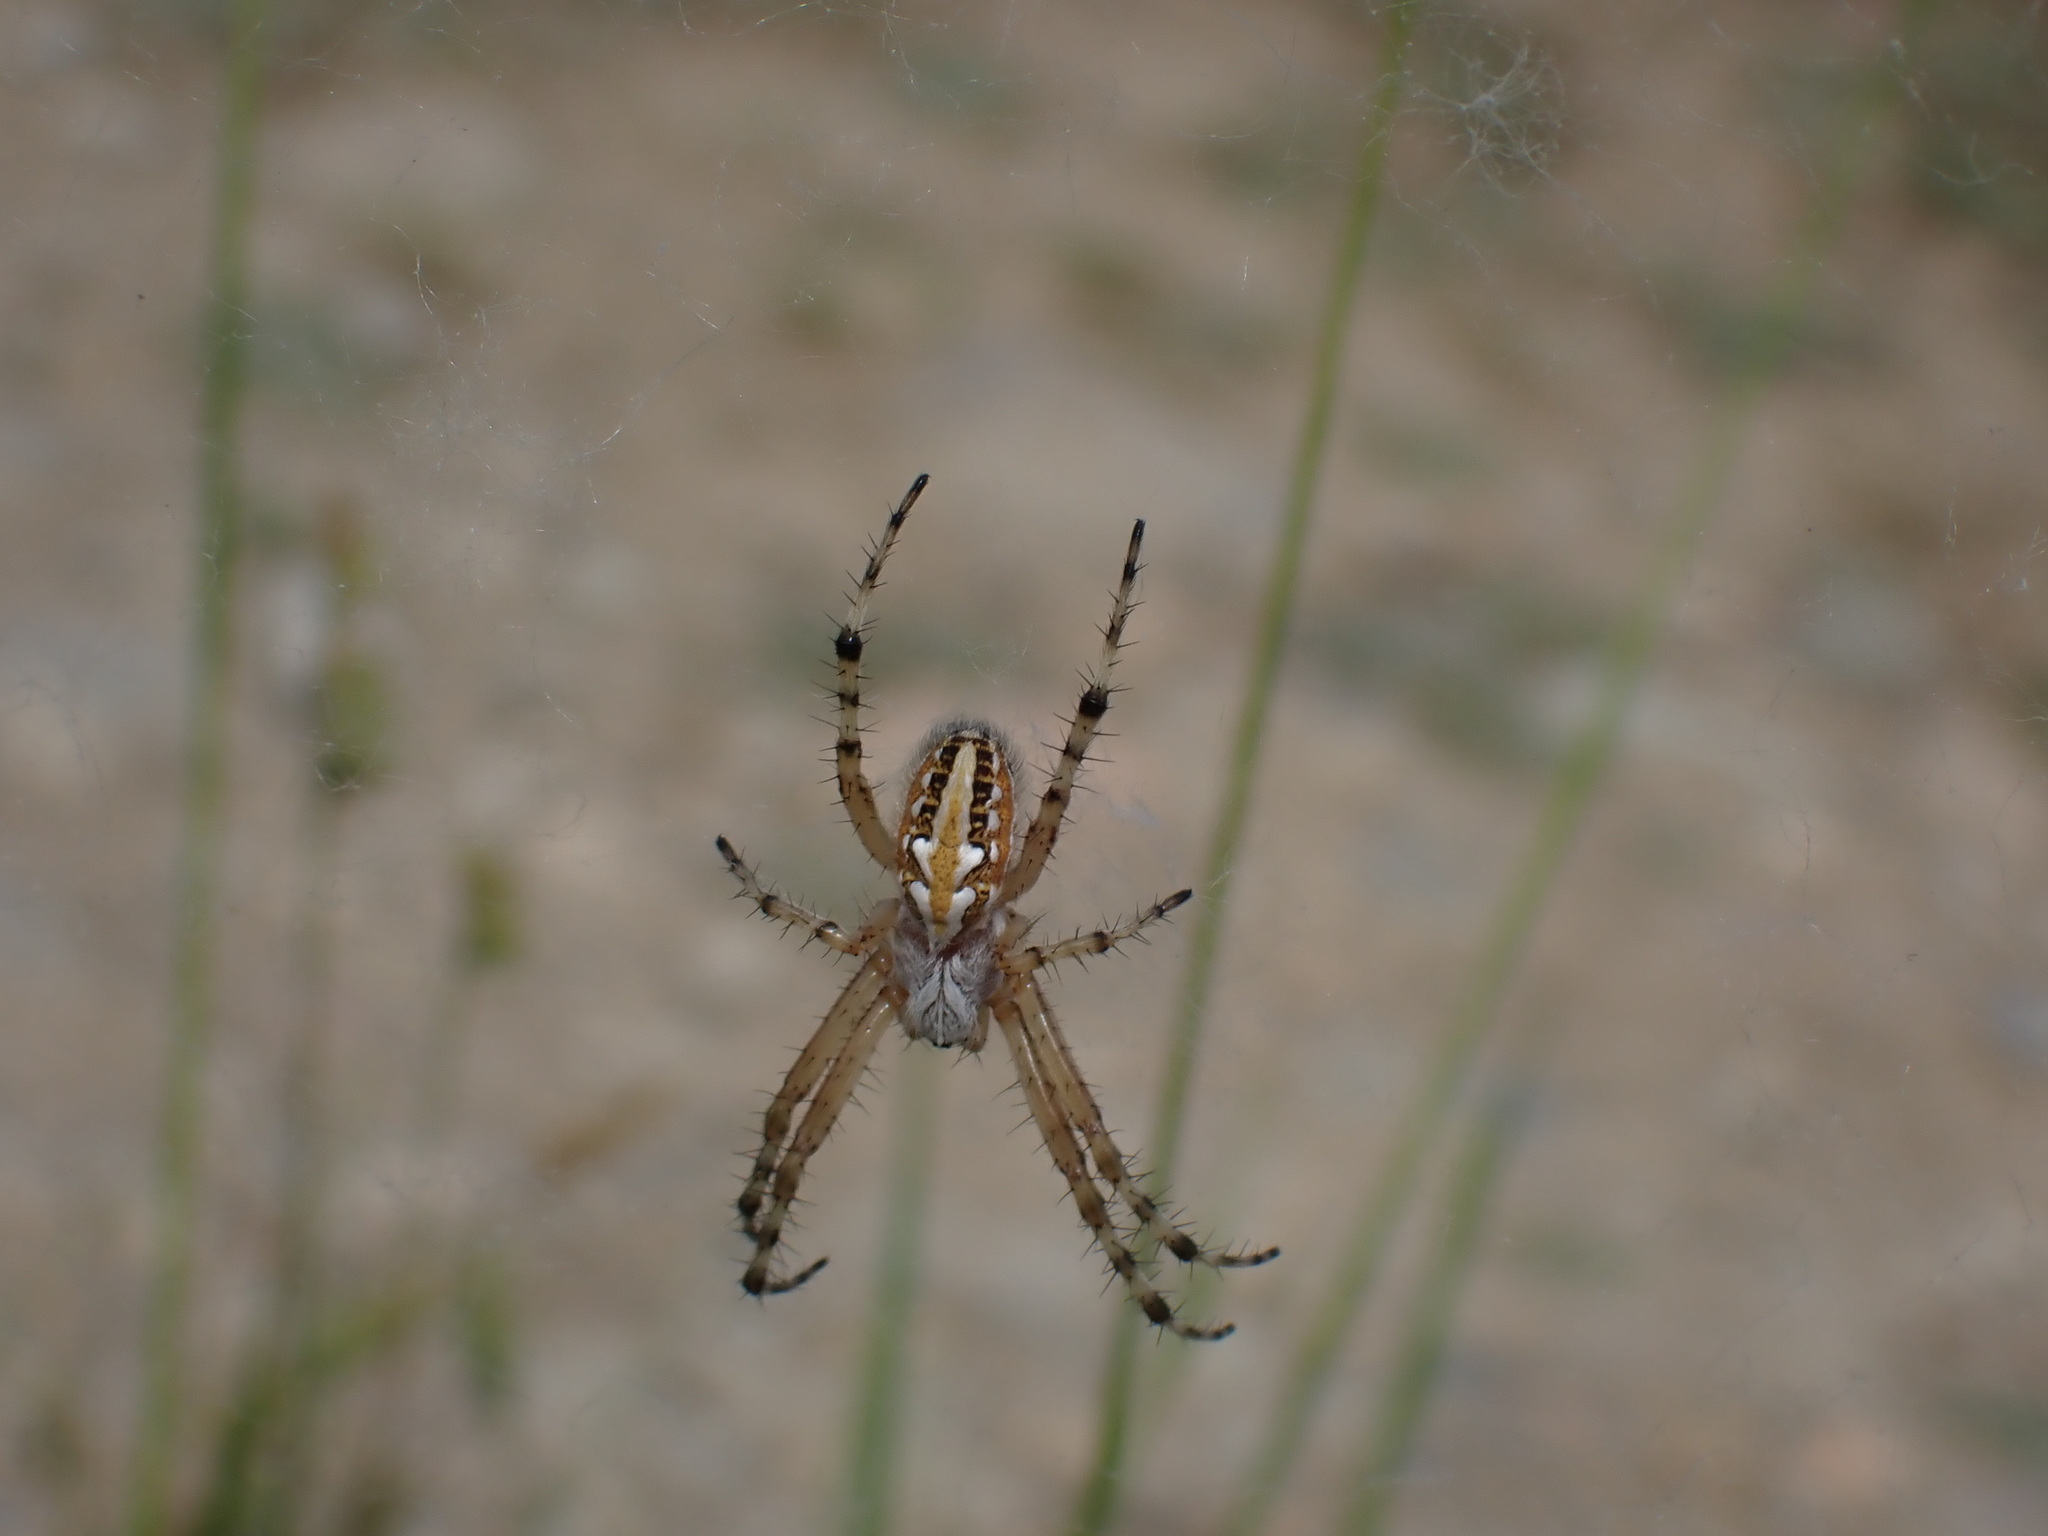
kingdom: Animalia
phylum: Arthropoda
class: Arachnida
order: Araneae
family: Araneidae
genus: Aculepeira
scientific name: Aculepeira armida
